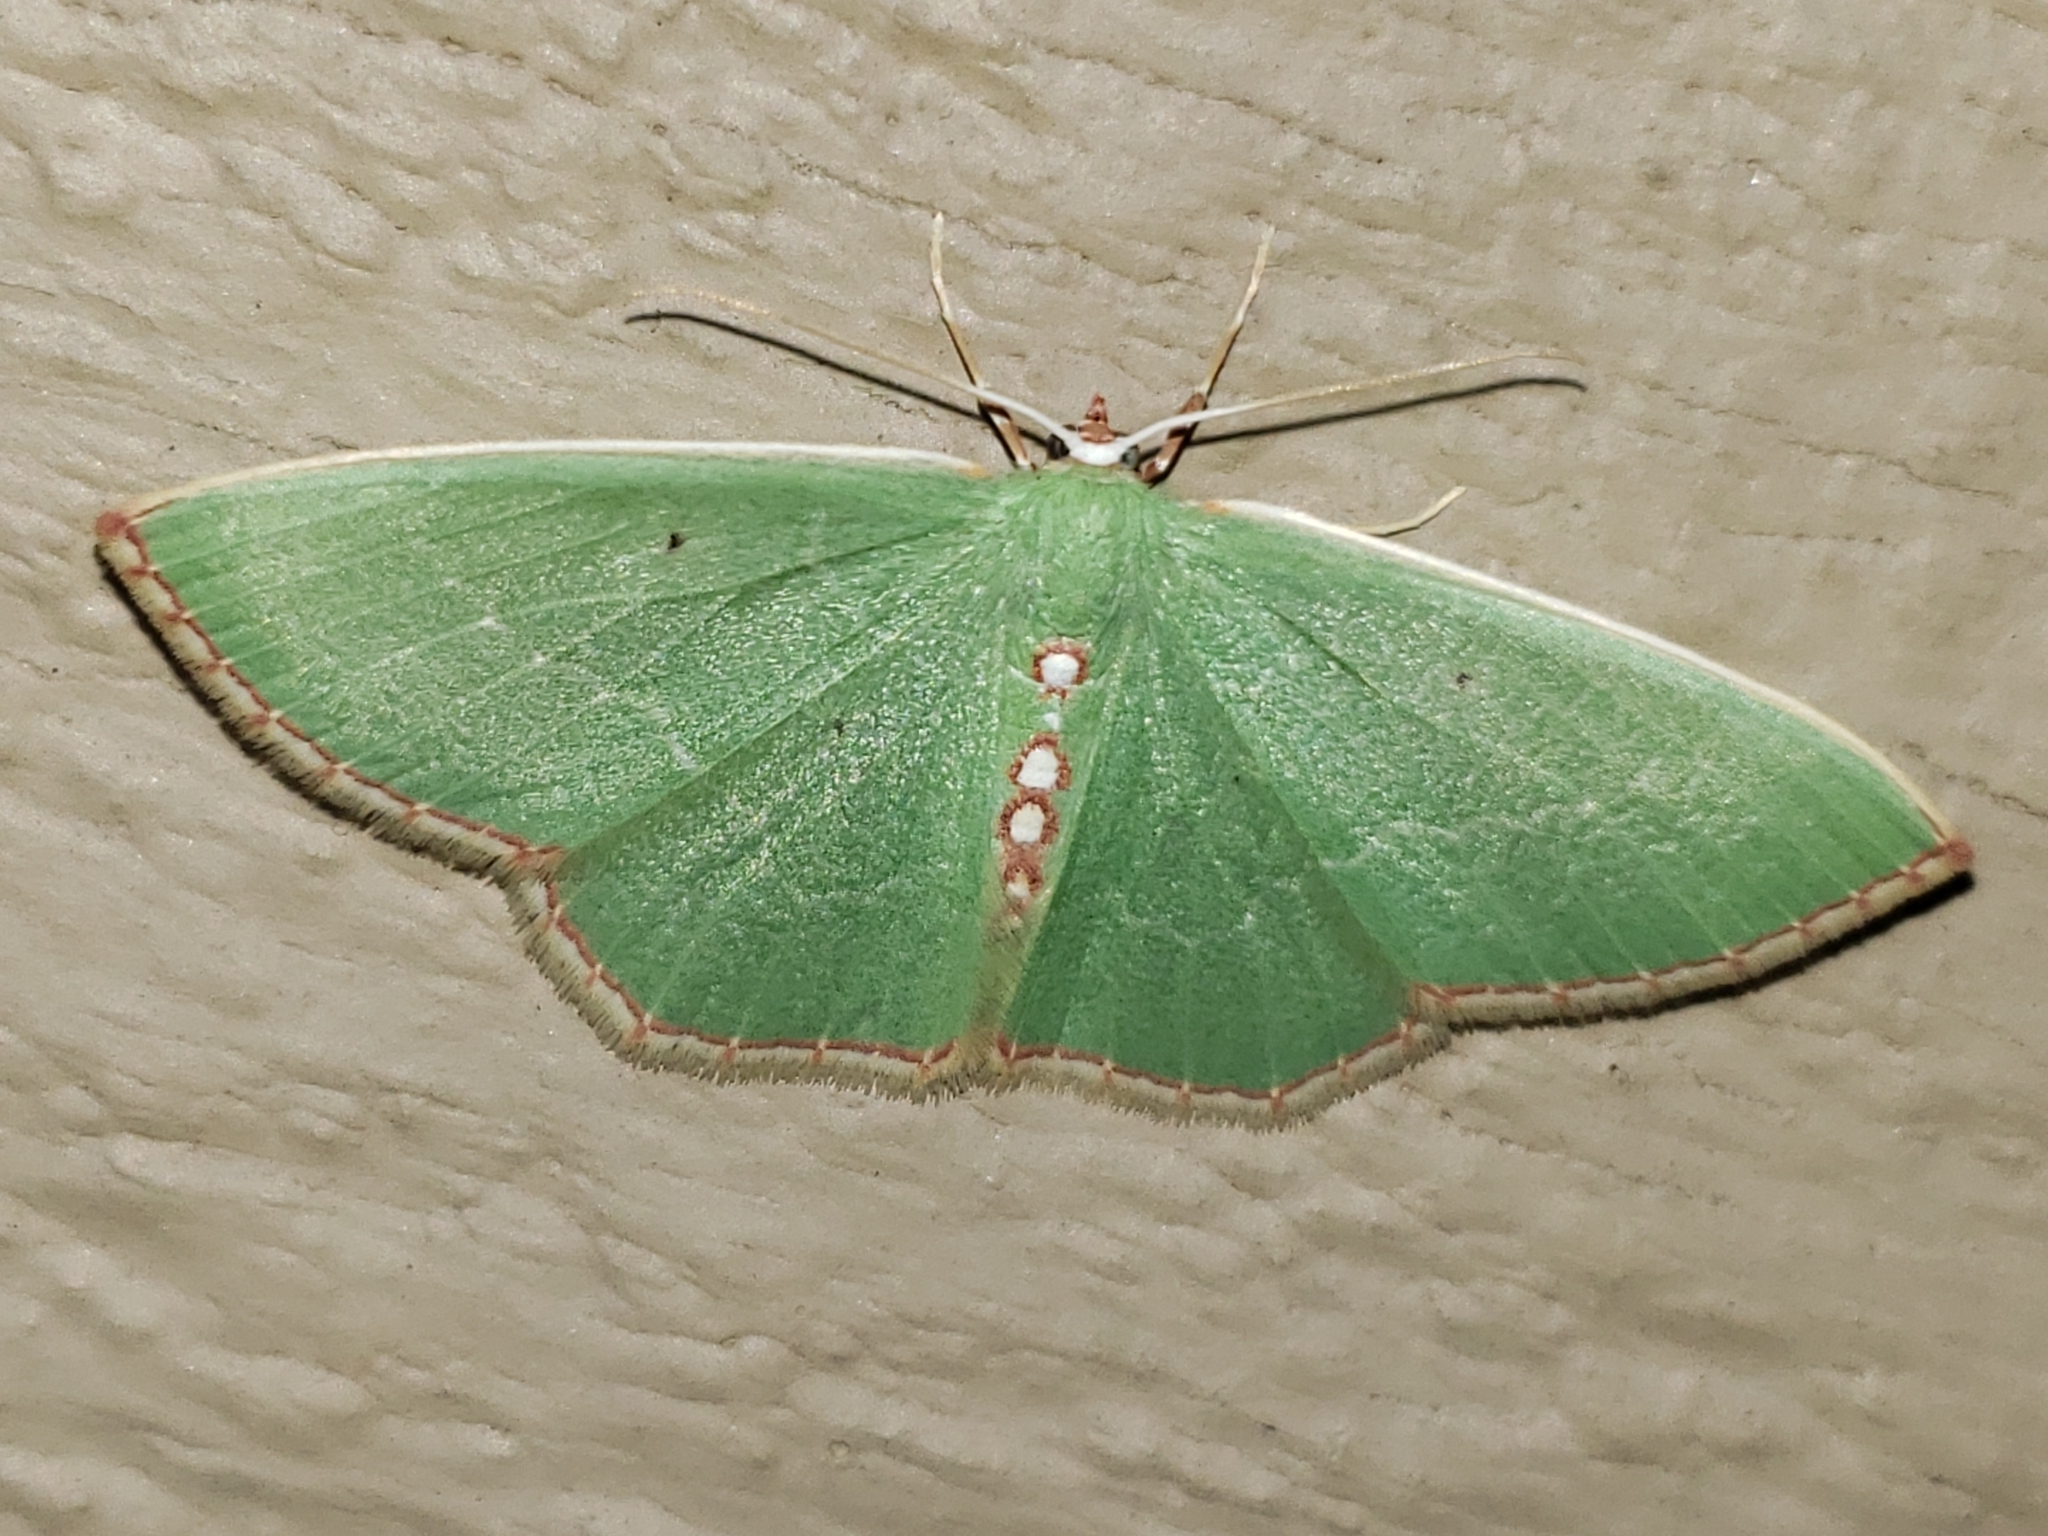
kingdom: Animalia
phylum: Arthropoda
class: Insecta
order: Lepidoptera
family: Geometridae
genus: Nemoria
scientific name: Nemoria lixaria
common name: Red-bordered emerald
